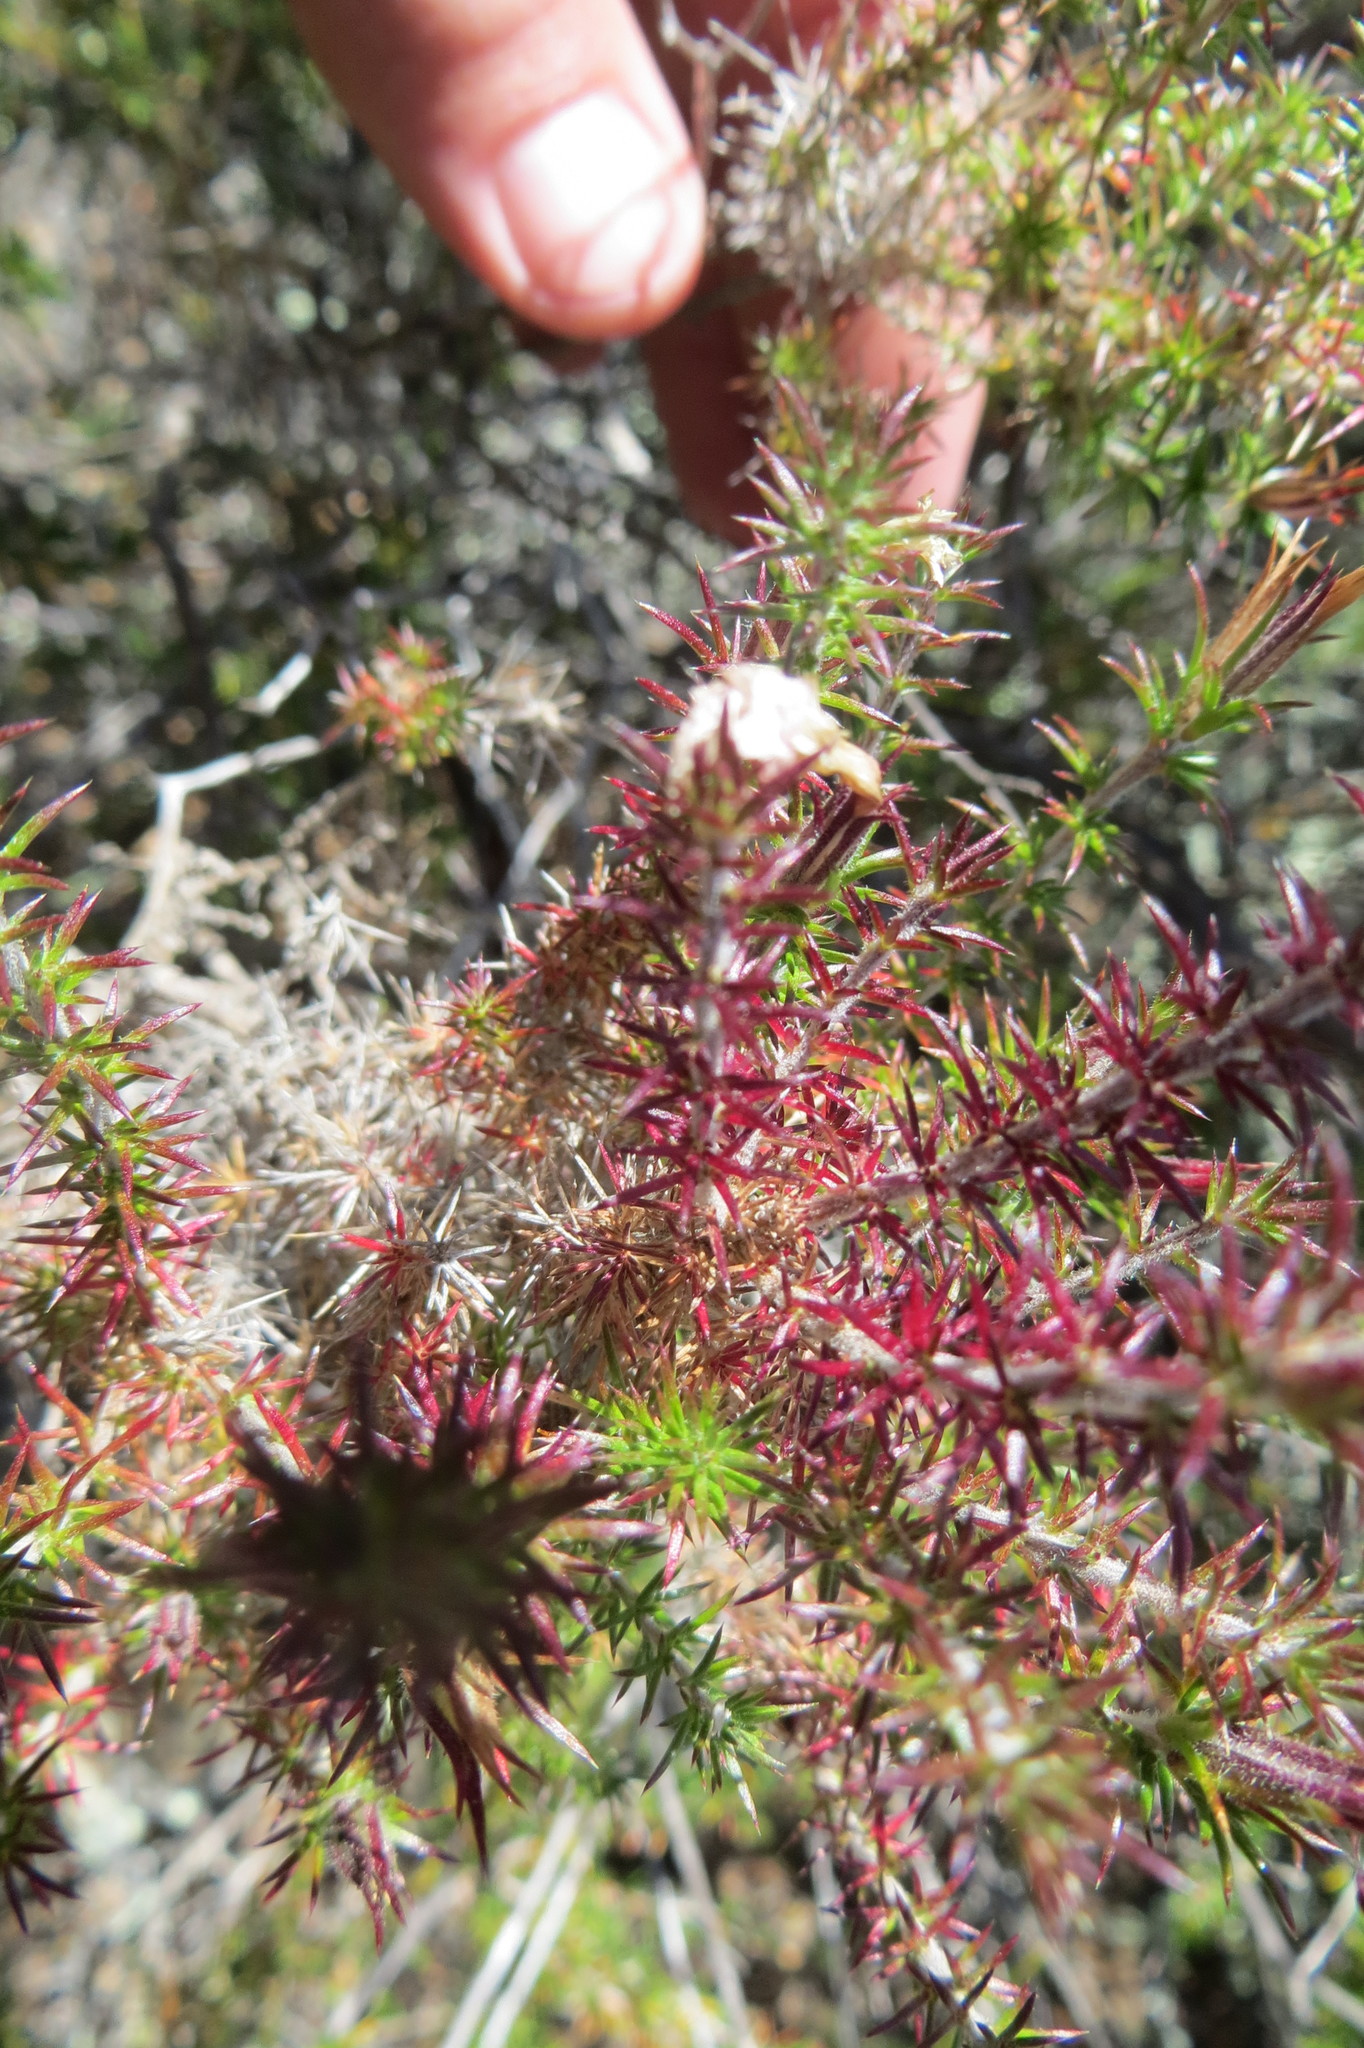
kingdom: Plantae
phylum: Tracheophyta
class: Magnoliopsida
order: Ericales
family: Polemoniaceae
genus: Linanthus
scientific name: Linanthus californicus
